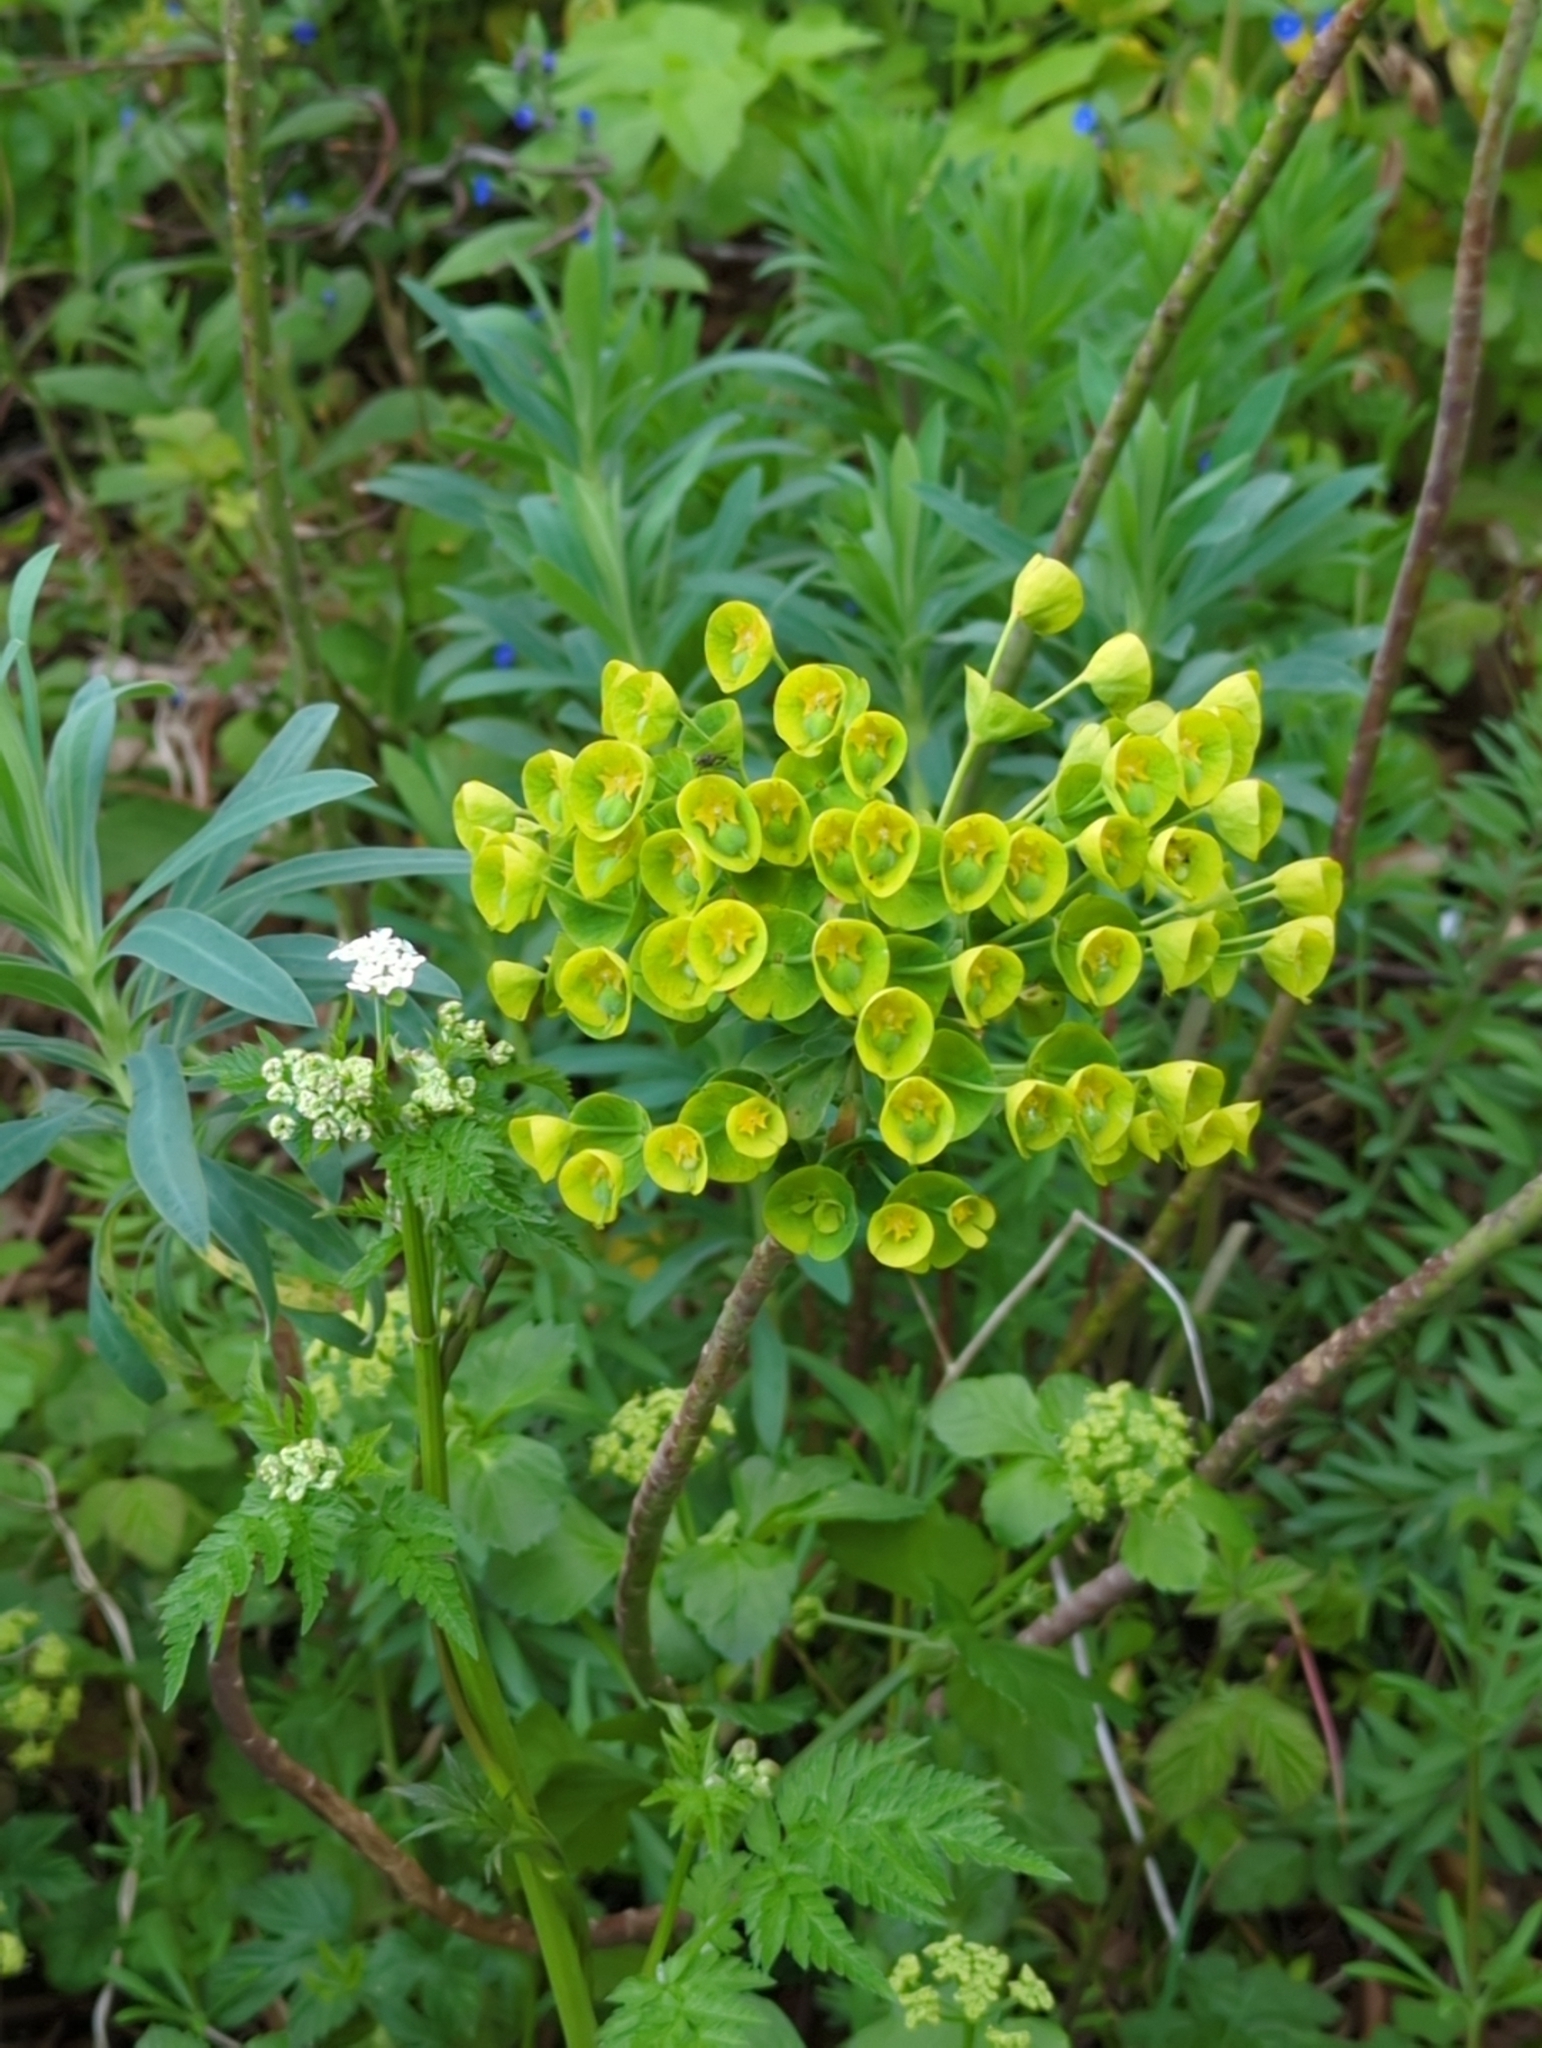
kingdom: Plantae
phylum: Tracheophyta
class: Magnoliopsida
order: Malpighiales
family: Euphorbiaceae
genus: Euphorbia
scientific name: Euphorbia characias
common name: Mediterranean spurge
